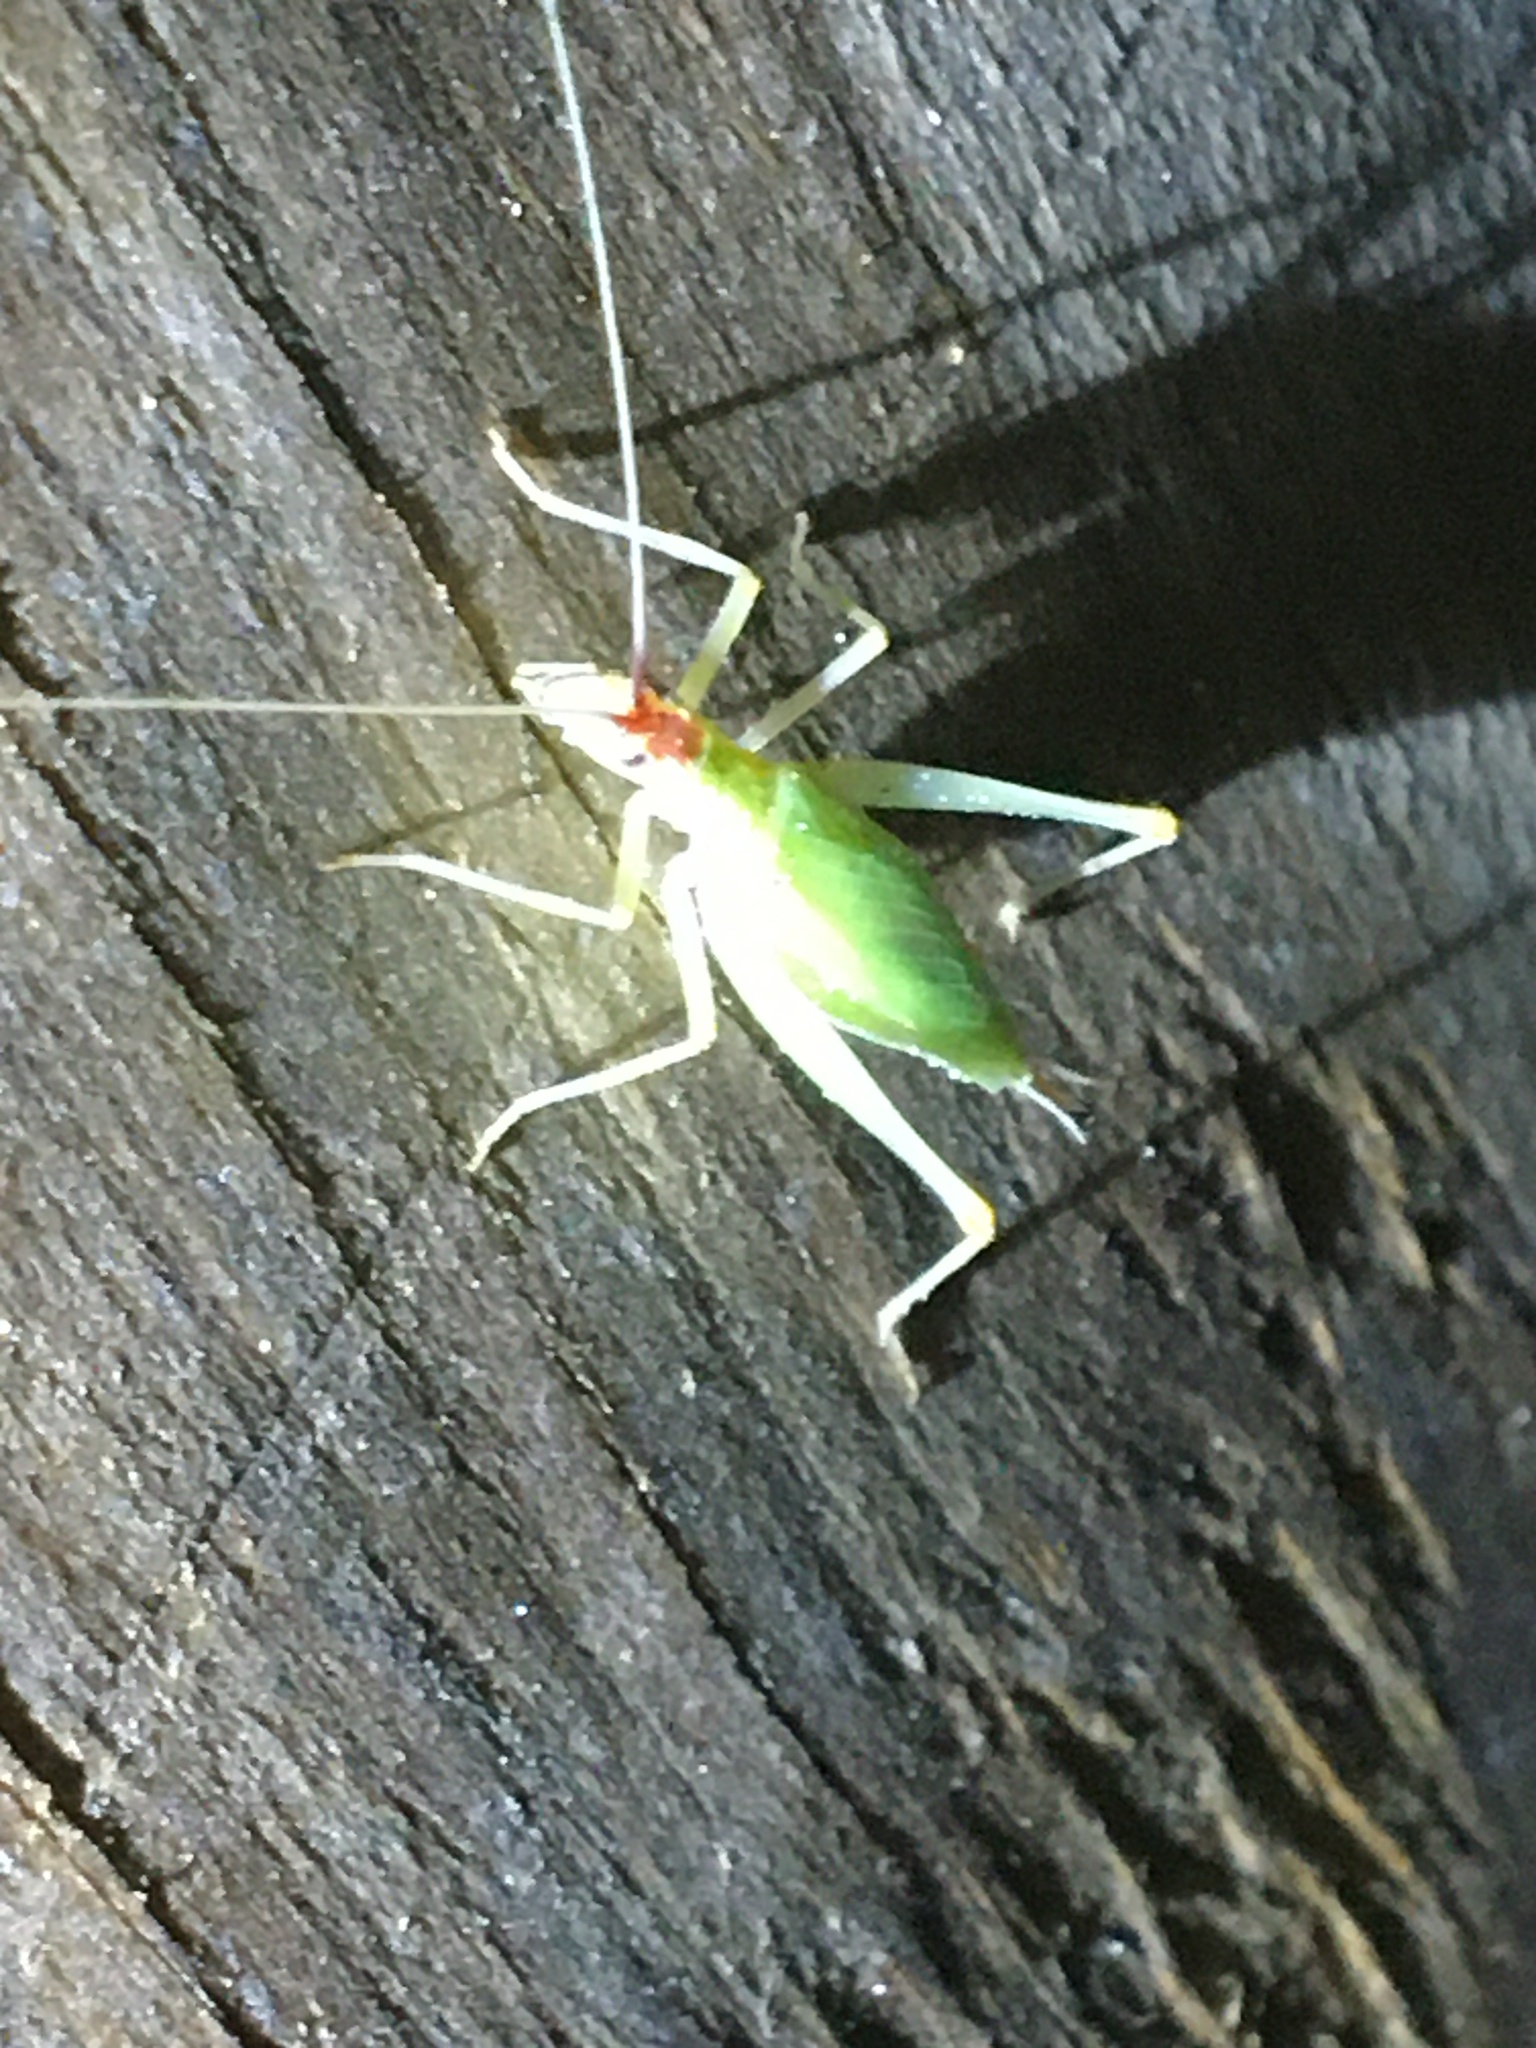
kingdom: Animalia
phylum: Arthropoda
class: Insecta
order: Orthoptera
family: Gryllidae
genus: Oecanthus
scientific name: Oecanthus latipennis
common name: Broad-winged tree cricket
